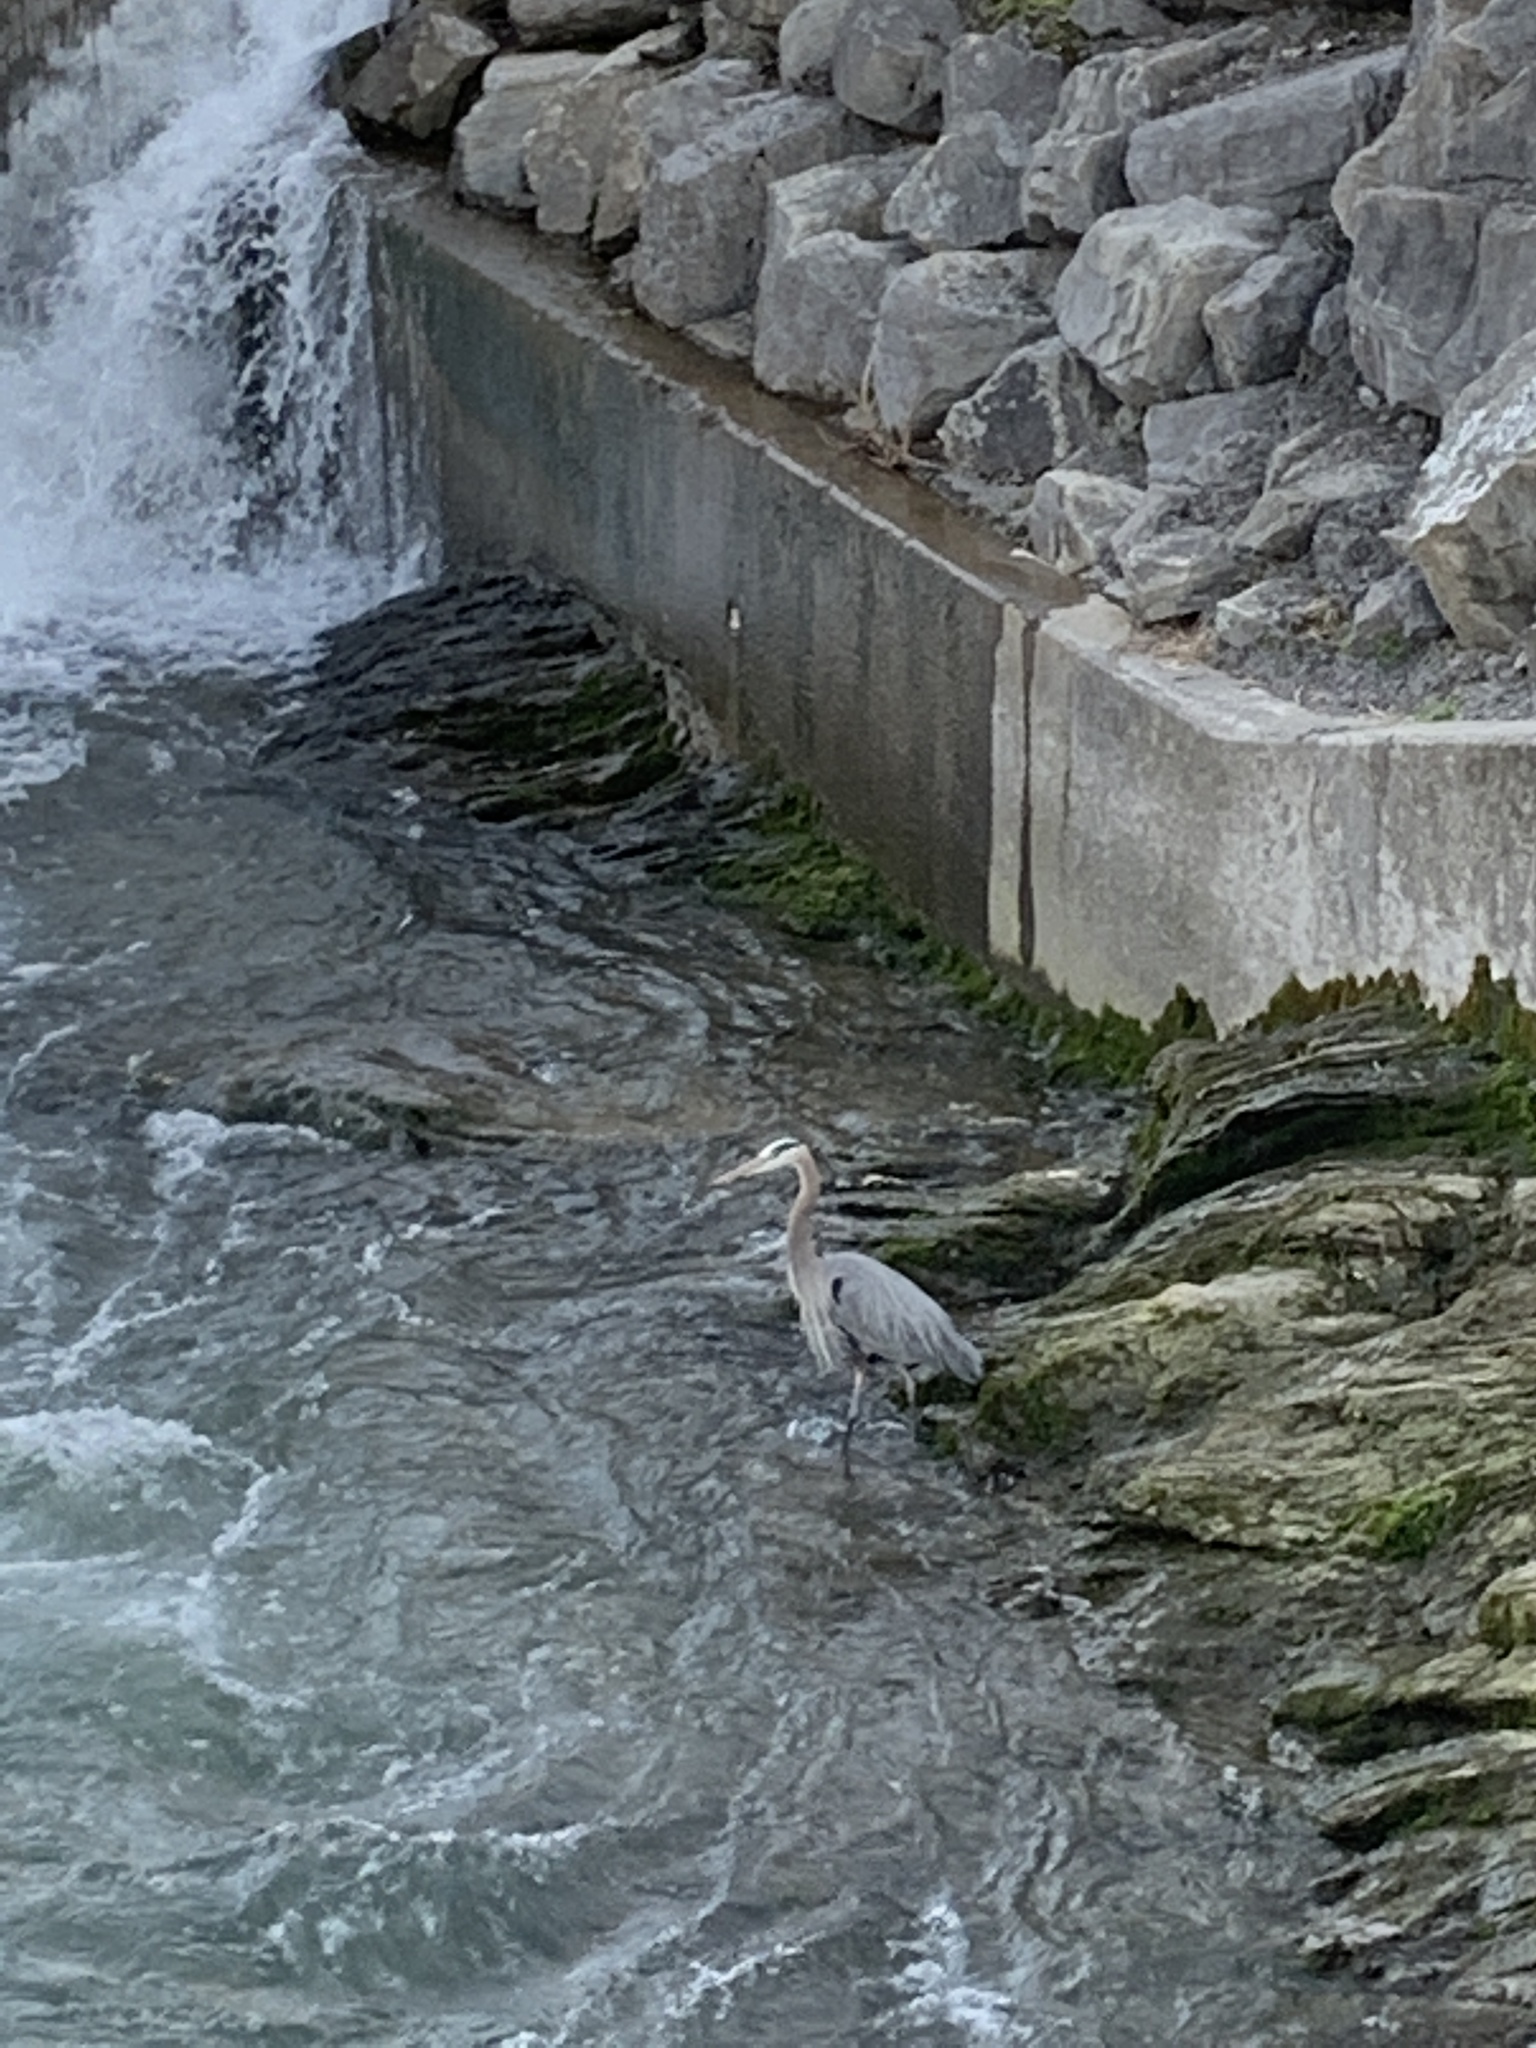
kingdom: Animalia
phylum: Chordata
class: Aves
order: Pelecaniformes
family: Ardeidae
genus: Ardea
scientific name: Ardea herodias
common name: Great blue heron
